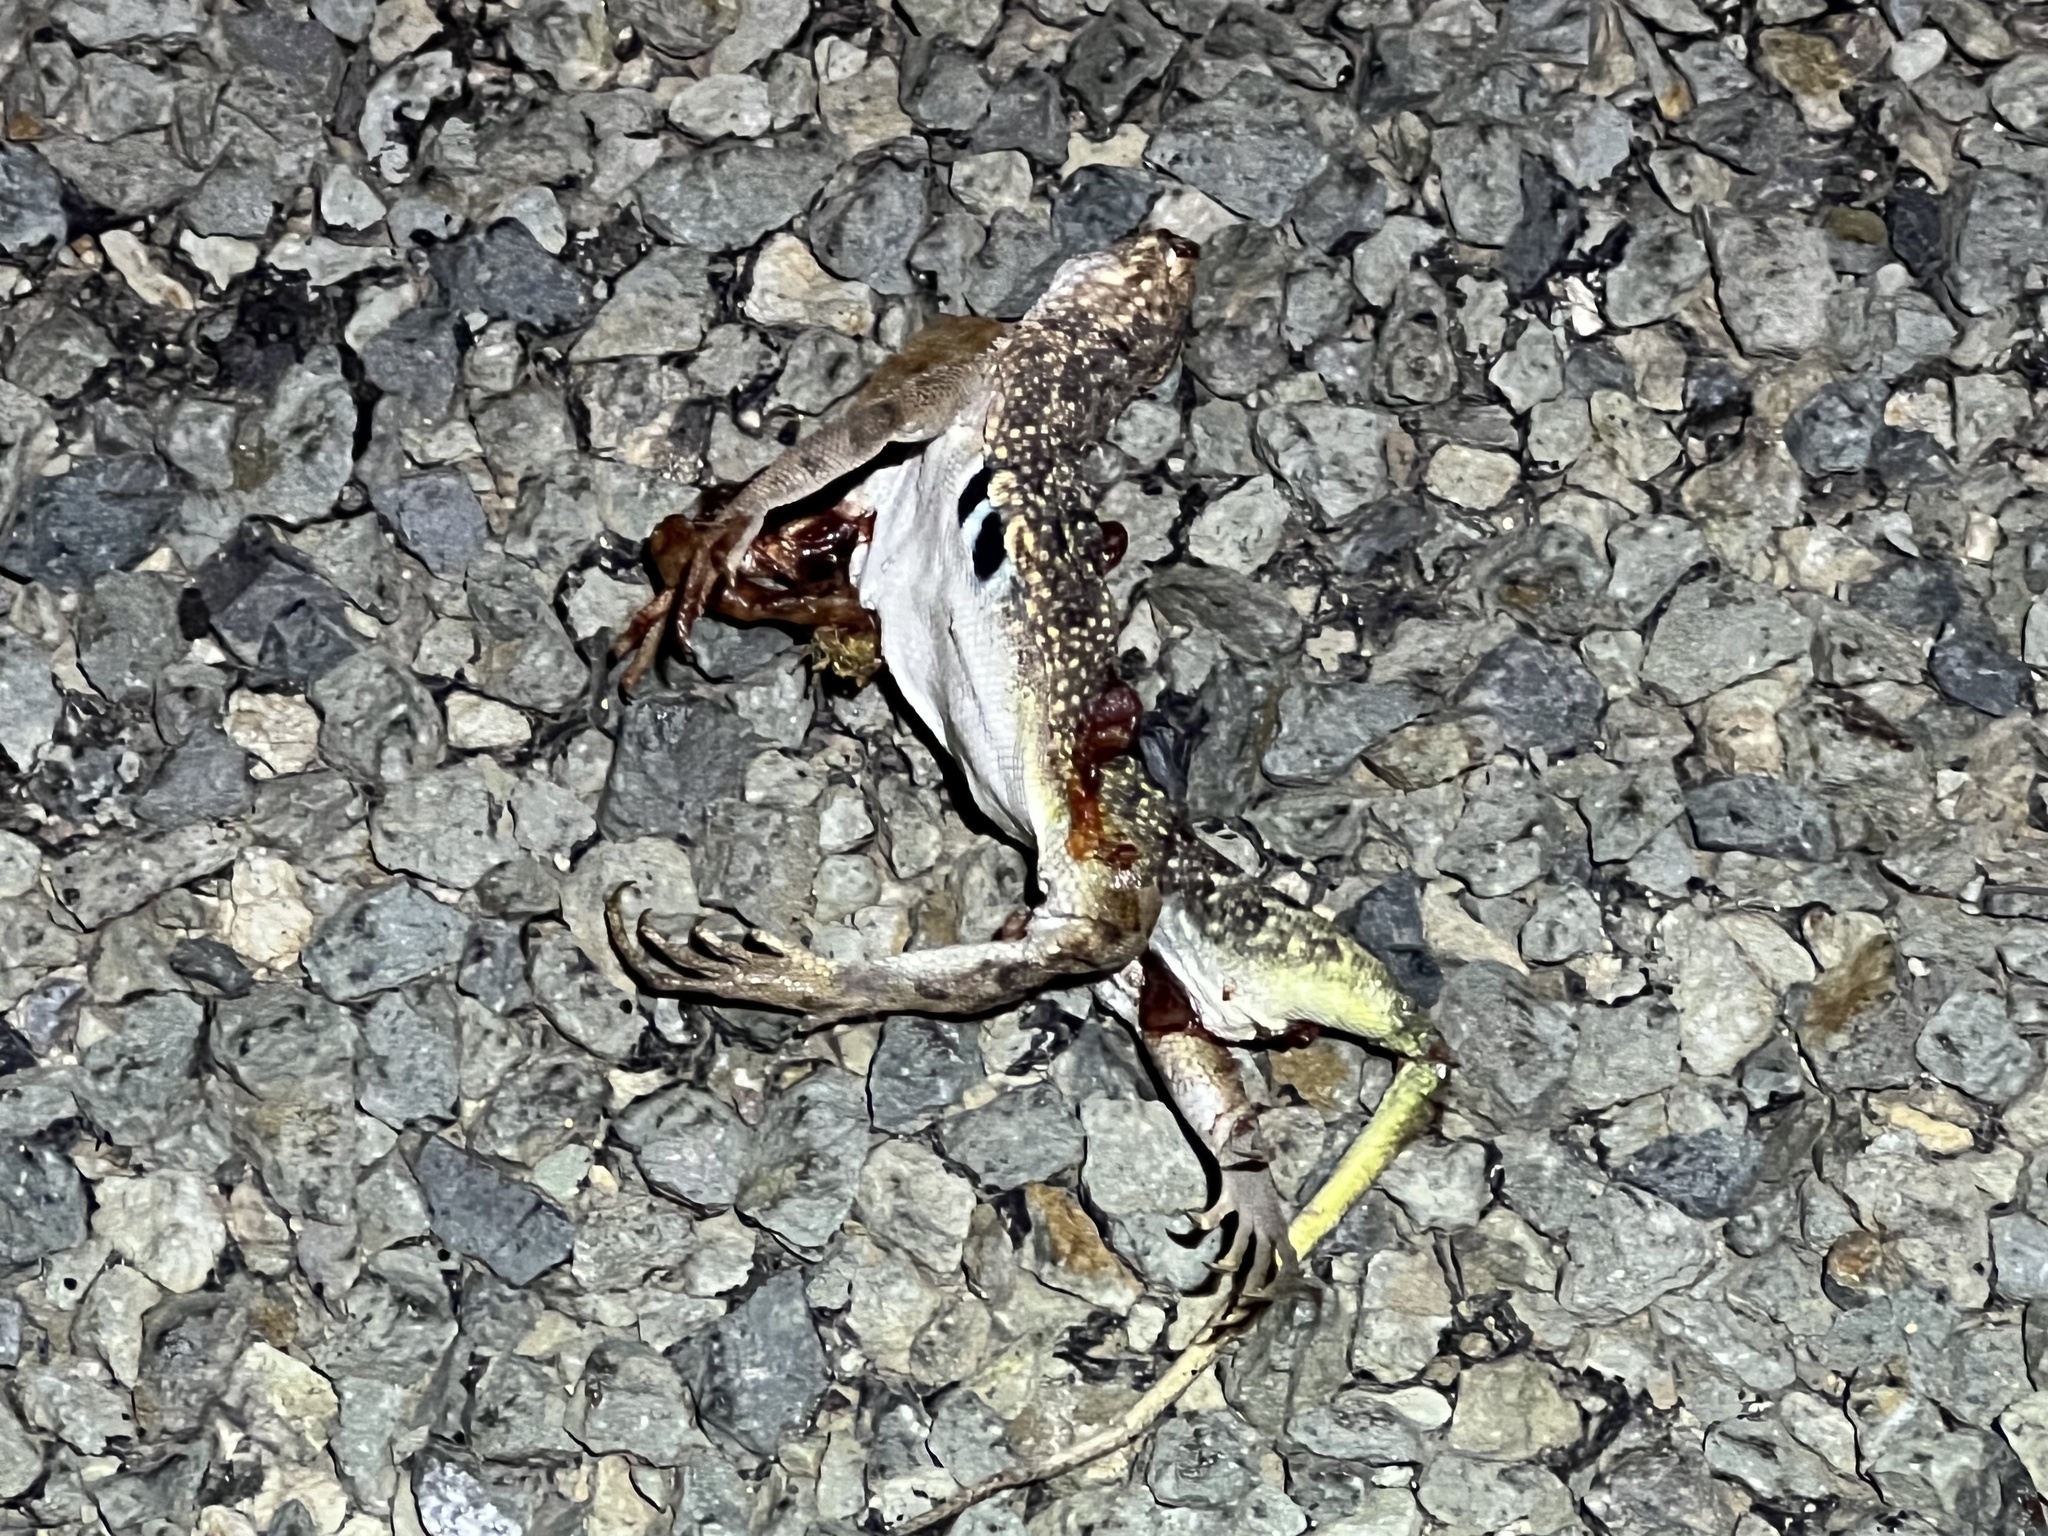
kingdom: Animalia
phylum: Chordata
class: Squamata
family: Phrynosomatidae
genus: Holbrookia
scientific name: Holbrookia maculata
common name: Lesser earless lizard
